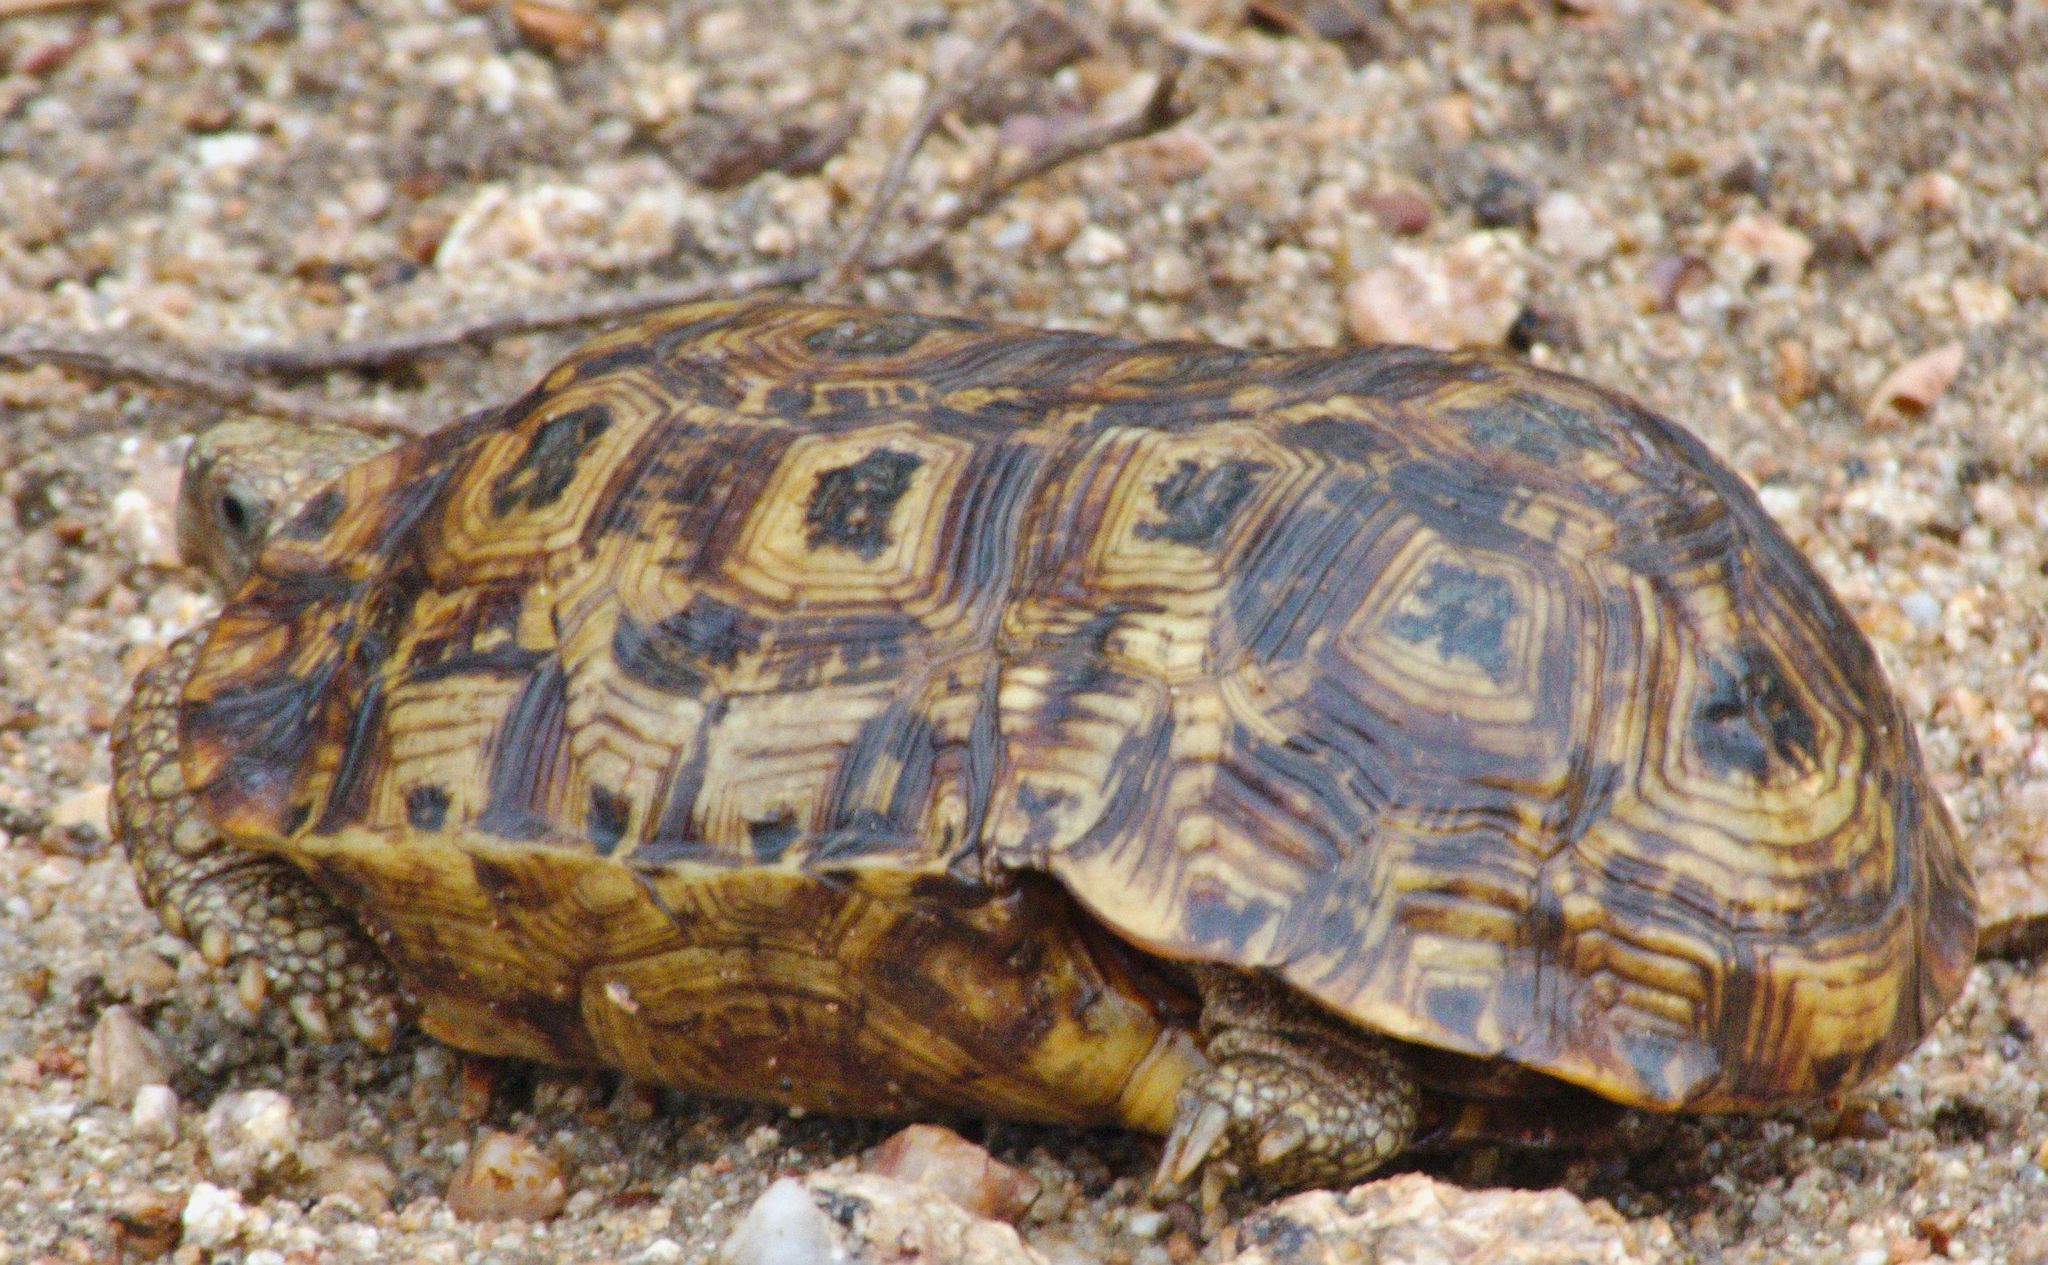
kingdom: Animalia
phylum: Chordata
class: Testudines
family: Testudinidae
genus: Kinixys
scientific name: Kinixys spekii
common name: Speke's hingeback tortoise
